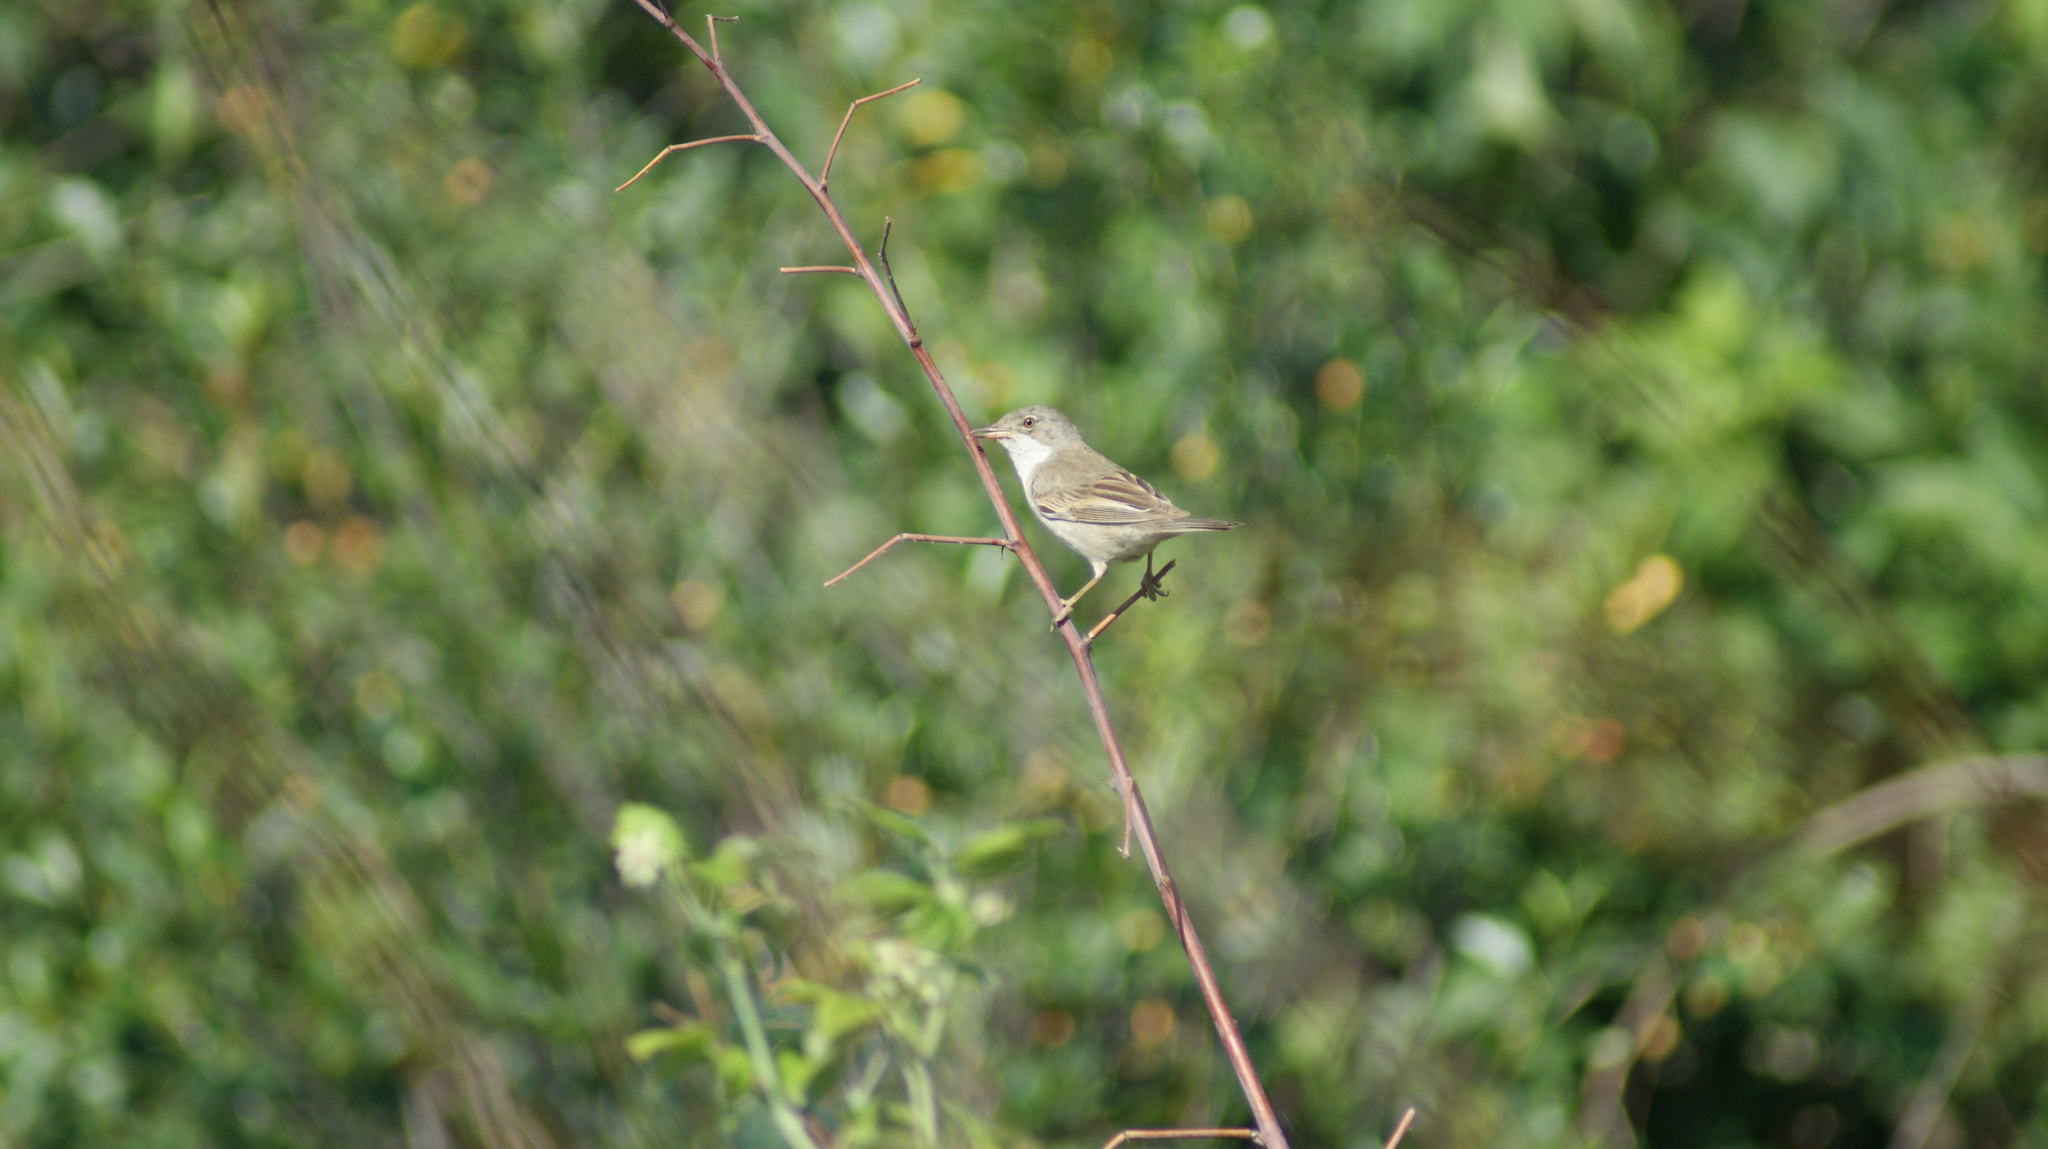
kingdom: Animalia
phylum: Chordata
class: Aves
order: Passeriformes
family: Sylviidae
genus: Sylvia
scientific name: Sylvia communis
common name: Common whitethroat
